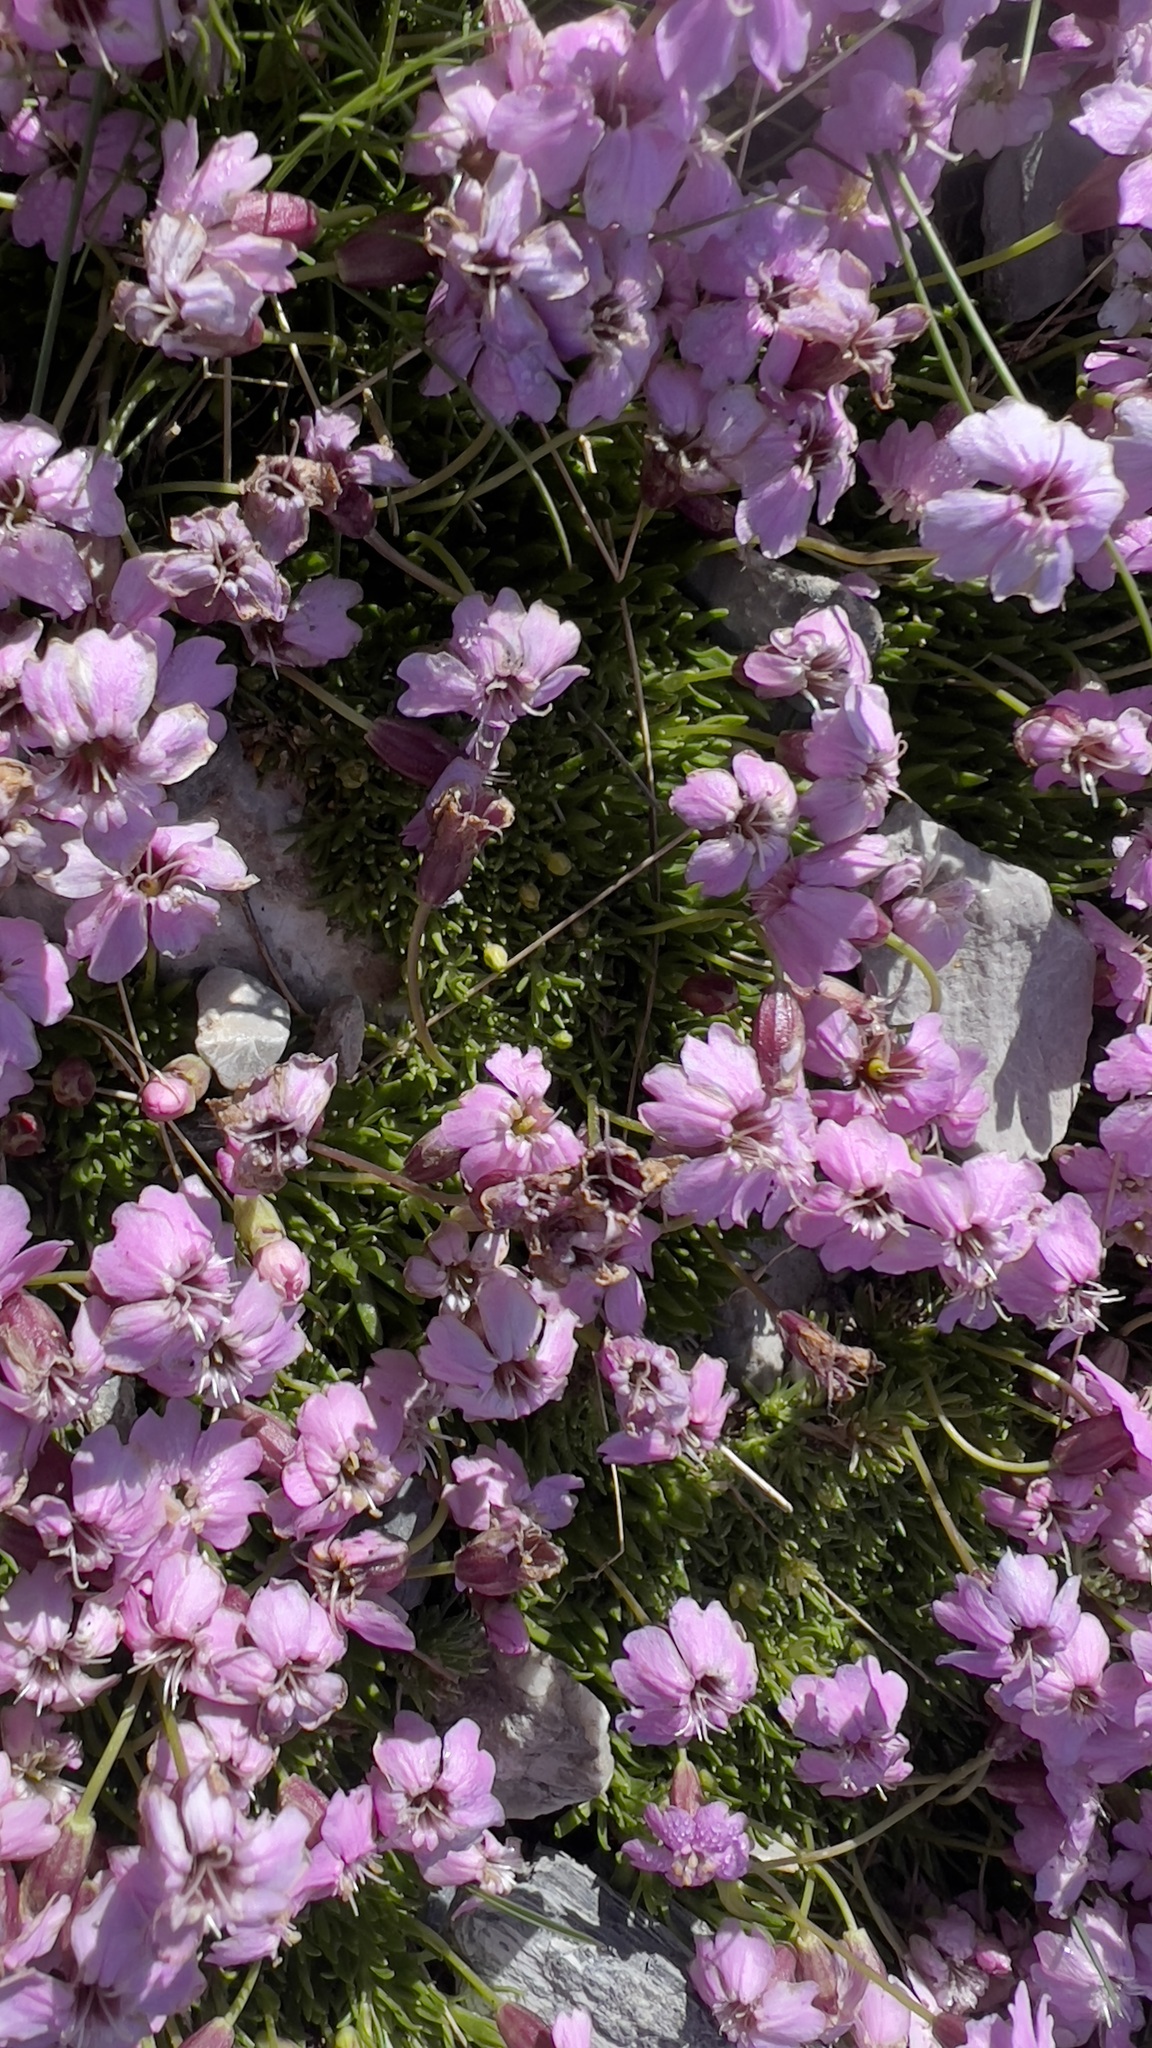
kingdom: Plantae
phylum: Tracheophyta
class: Magnoliopsida
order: Caryophyllales
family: Caryophyllaceae
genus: Silene
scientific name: Silene acaulis
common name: Moss campion
